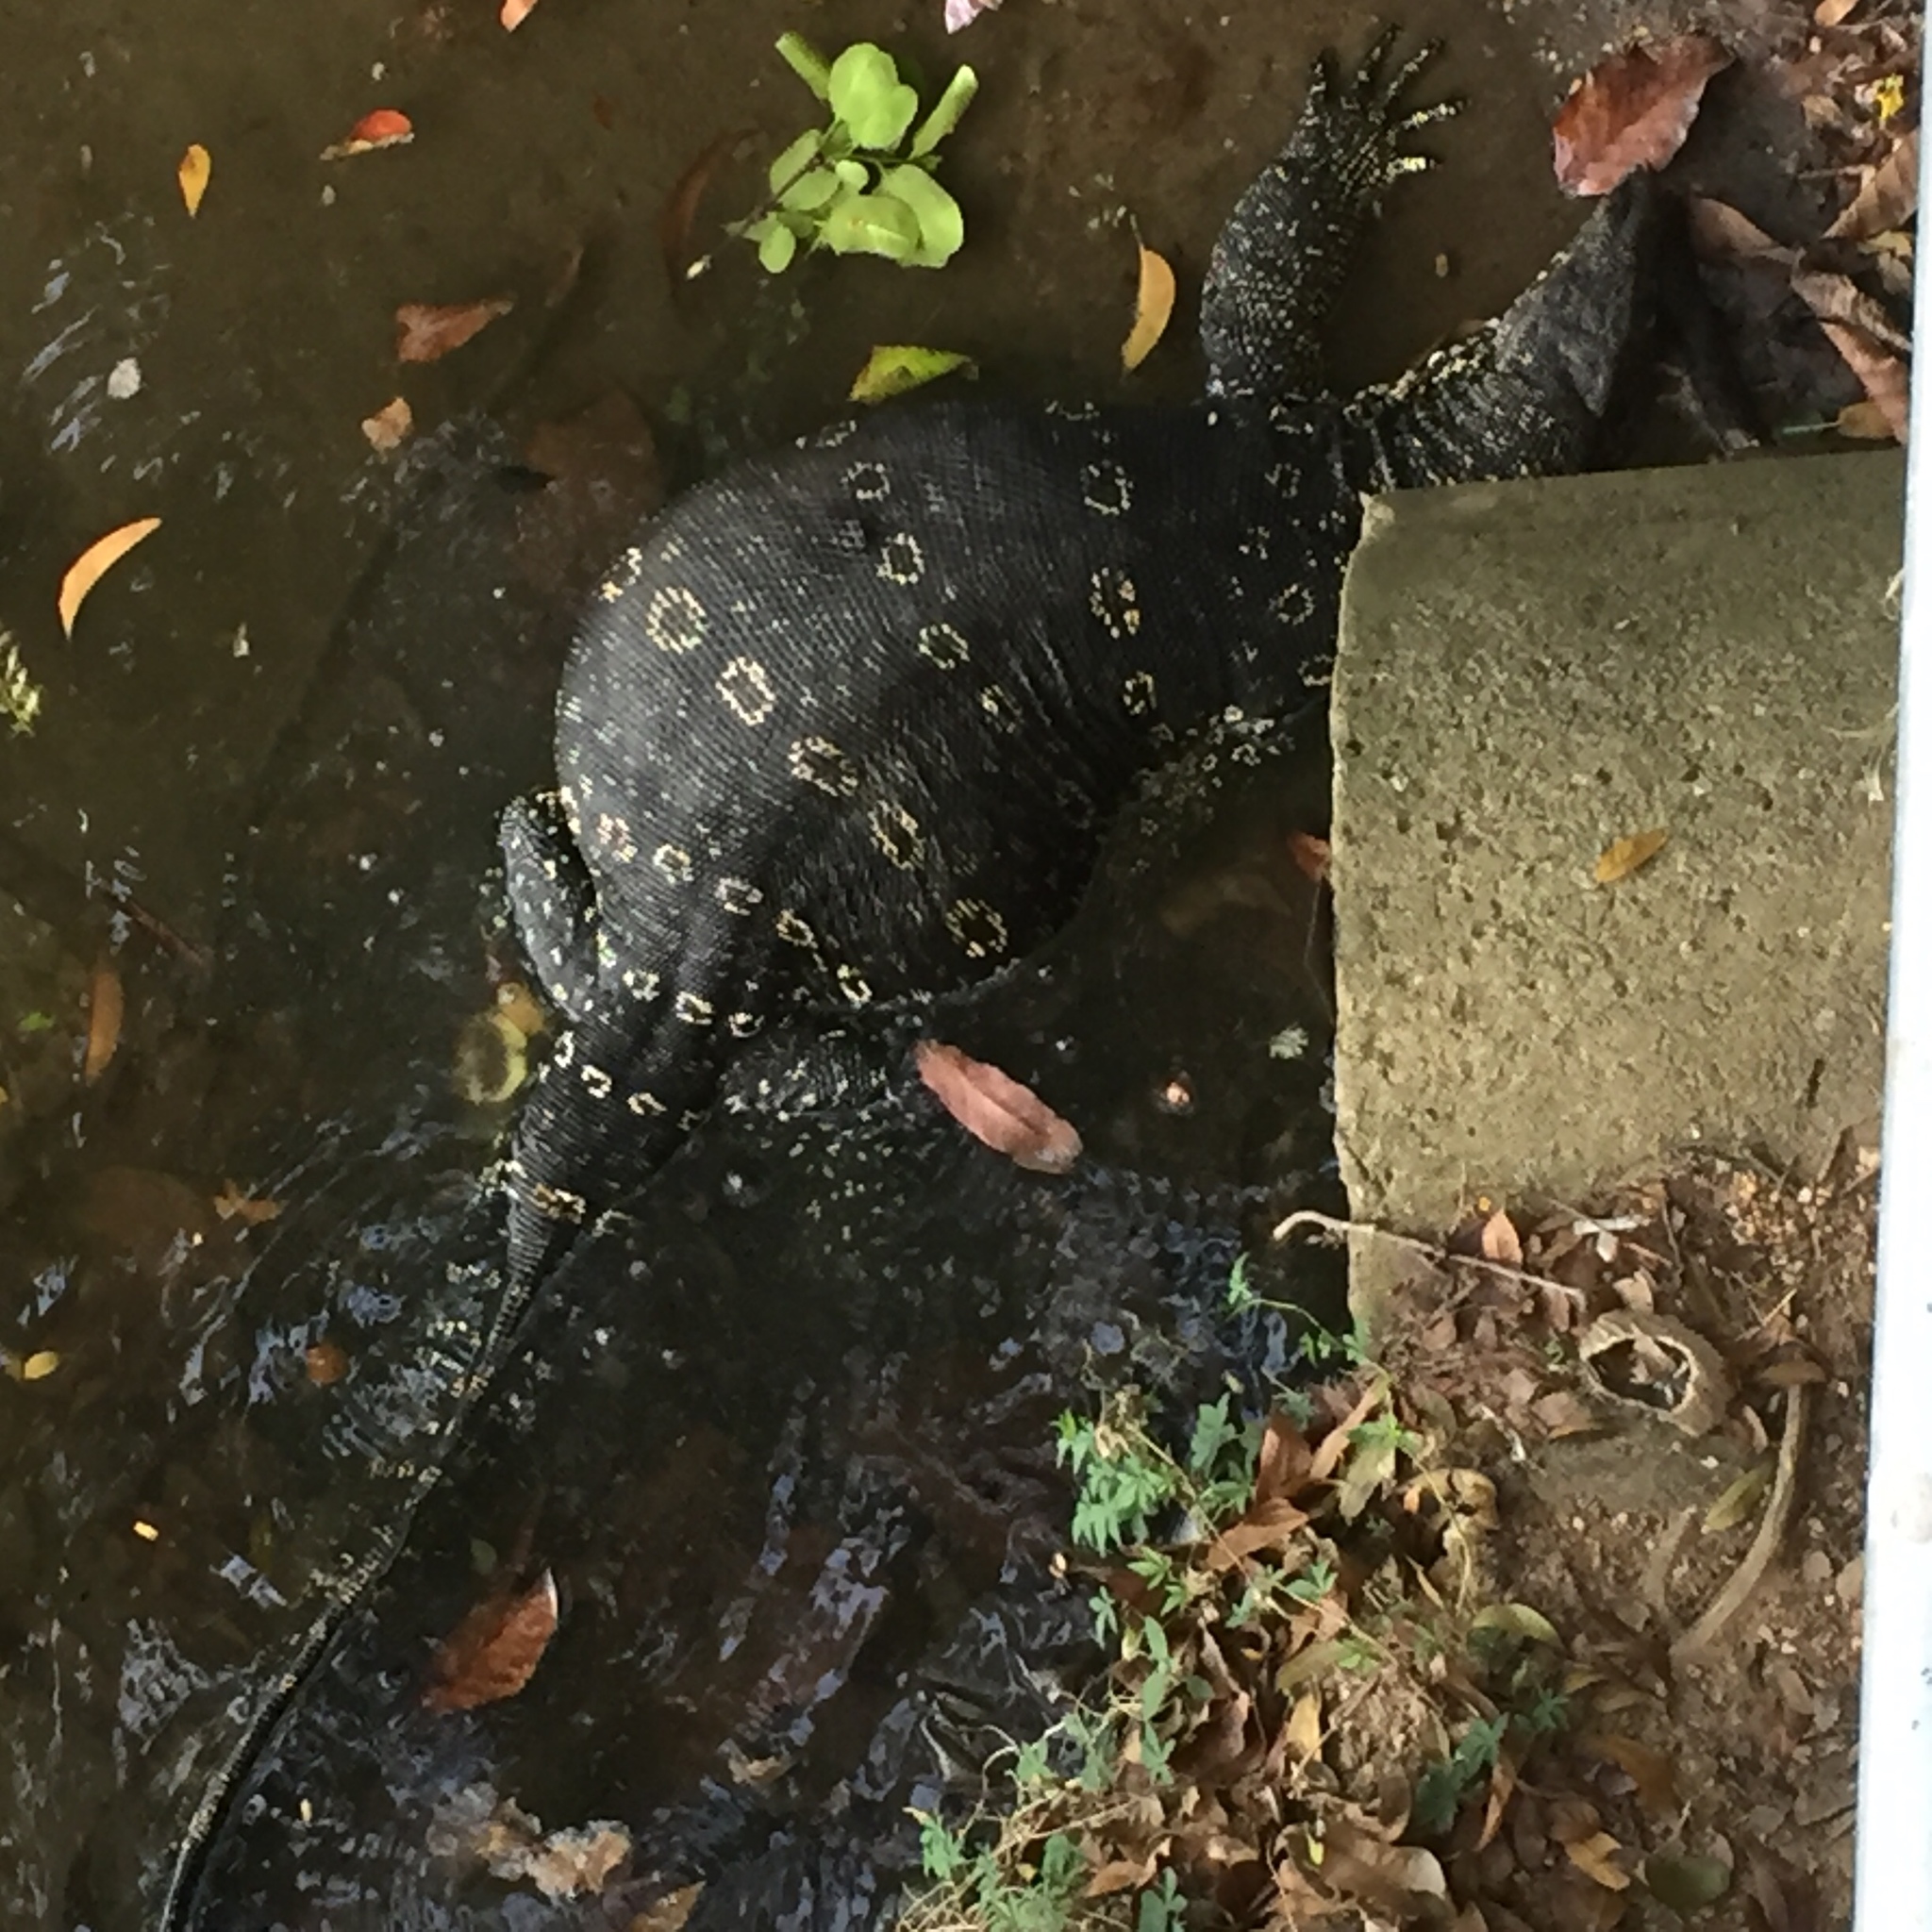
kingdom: Animalia
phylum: Chordata
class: Squamata
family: Varanidae
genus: Varanus
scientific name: Varanus salvator
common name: Common water monitor
